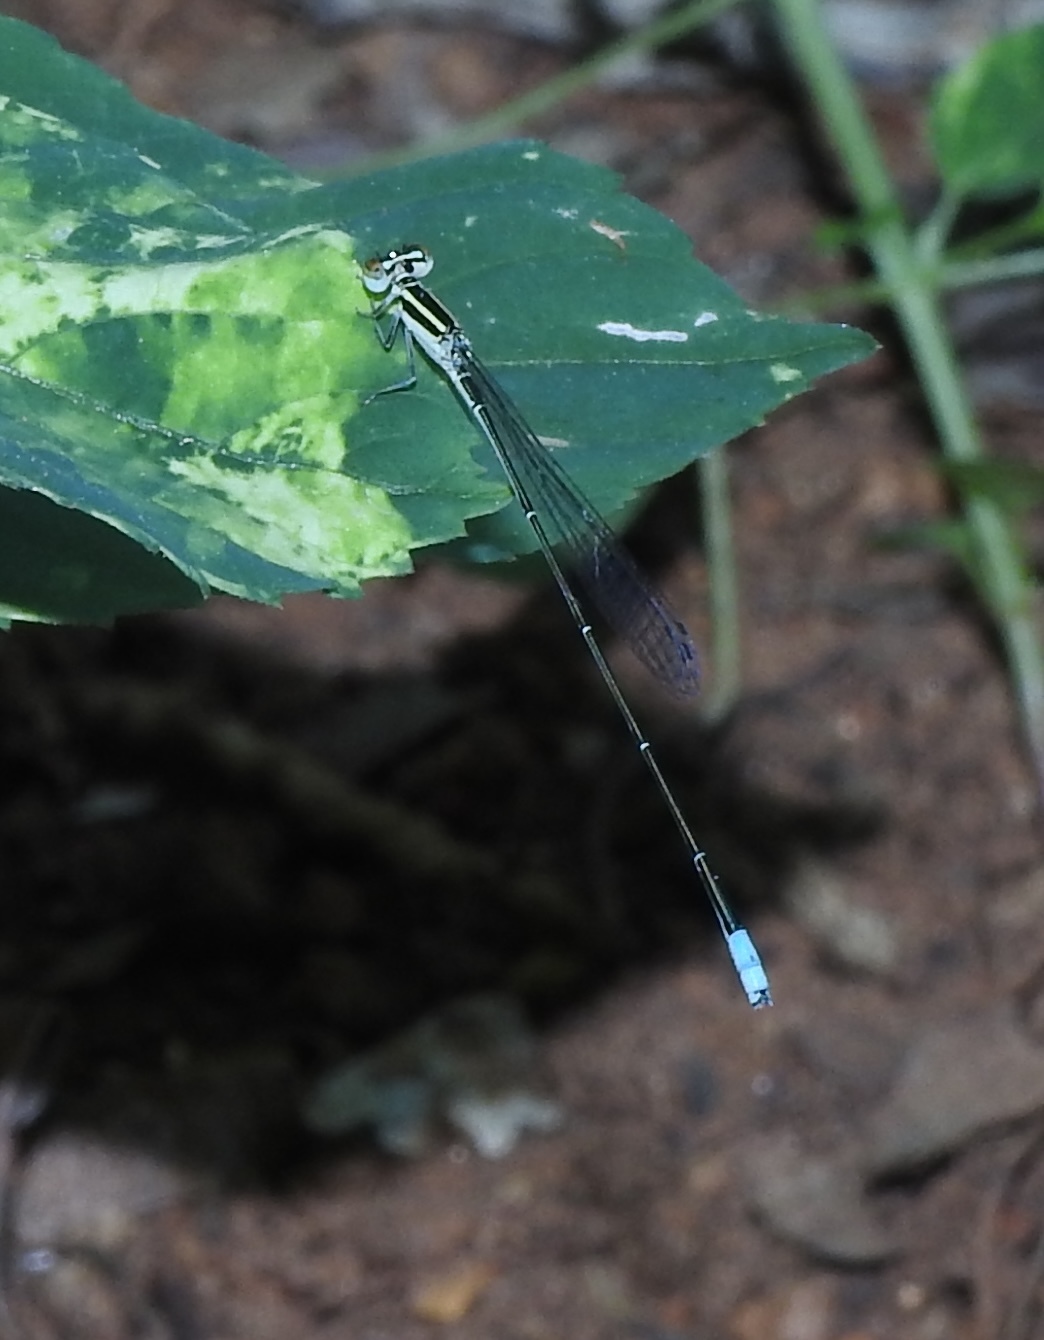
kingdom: Animalia
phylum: Arthropoda
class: Insecta
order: Odonata
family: Coenagrionidae
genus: Aciagrion
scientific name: Aciagrion occidentale
